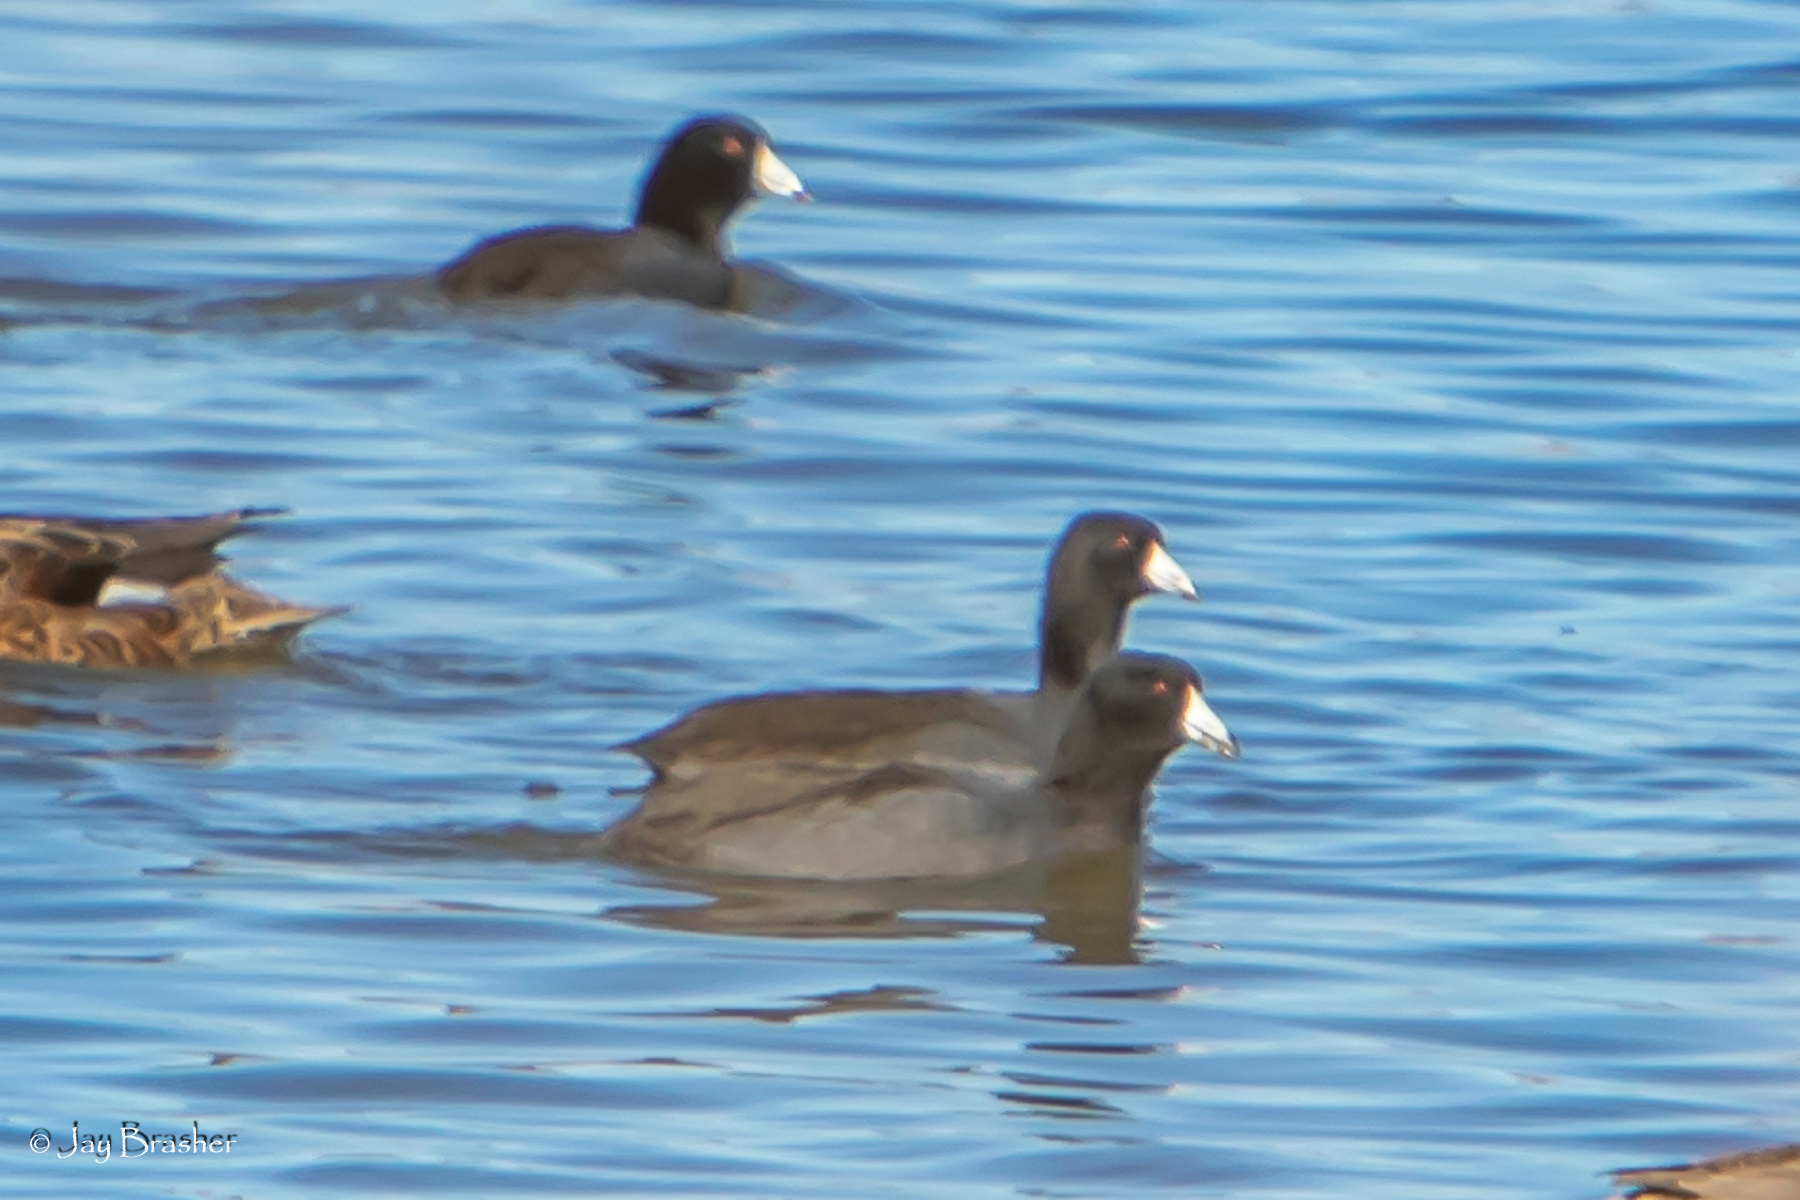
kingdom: Animalia
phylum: Chordata
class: Aves
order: Gruiformes
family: Rallidae
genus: Fulica
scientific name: Fulica americana
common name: American coot
